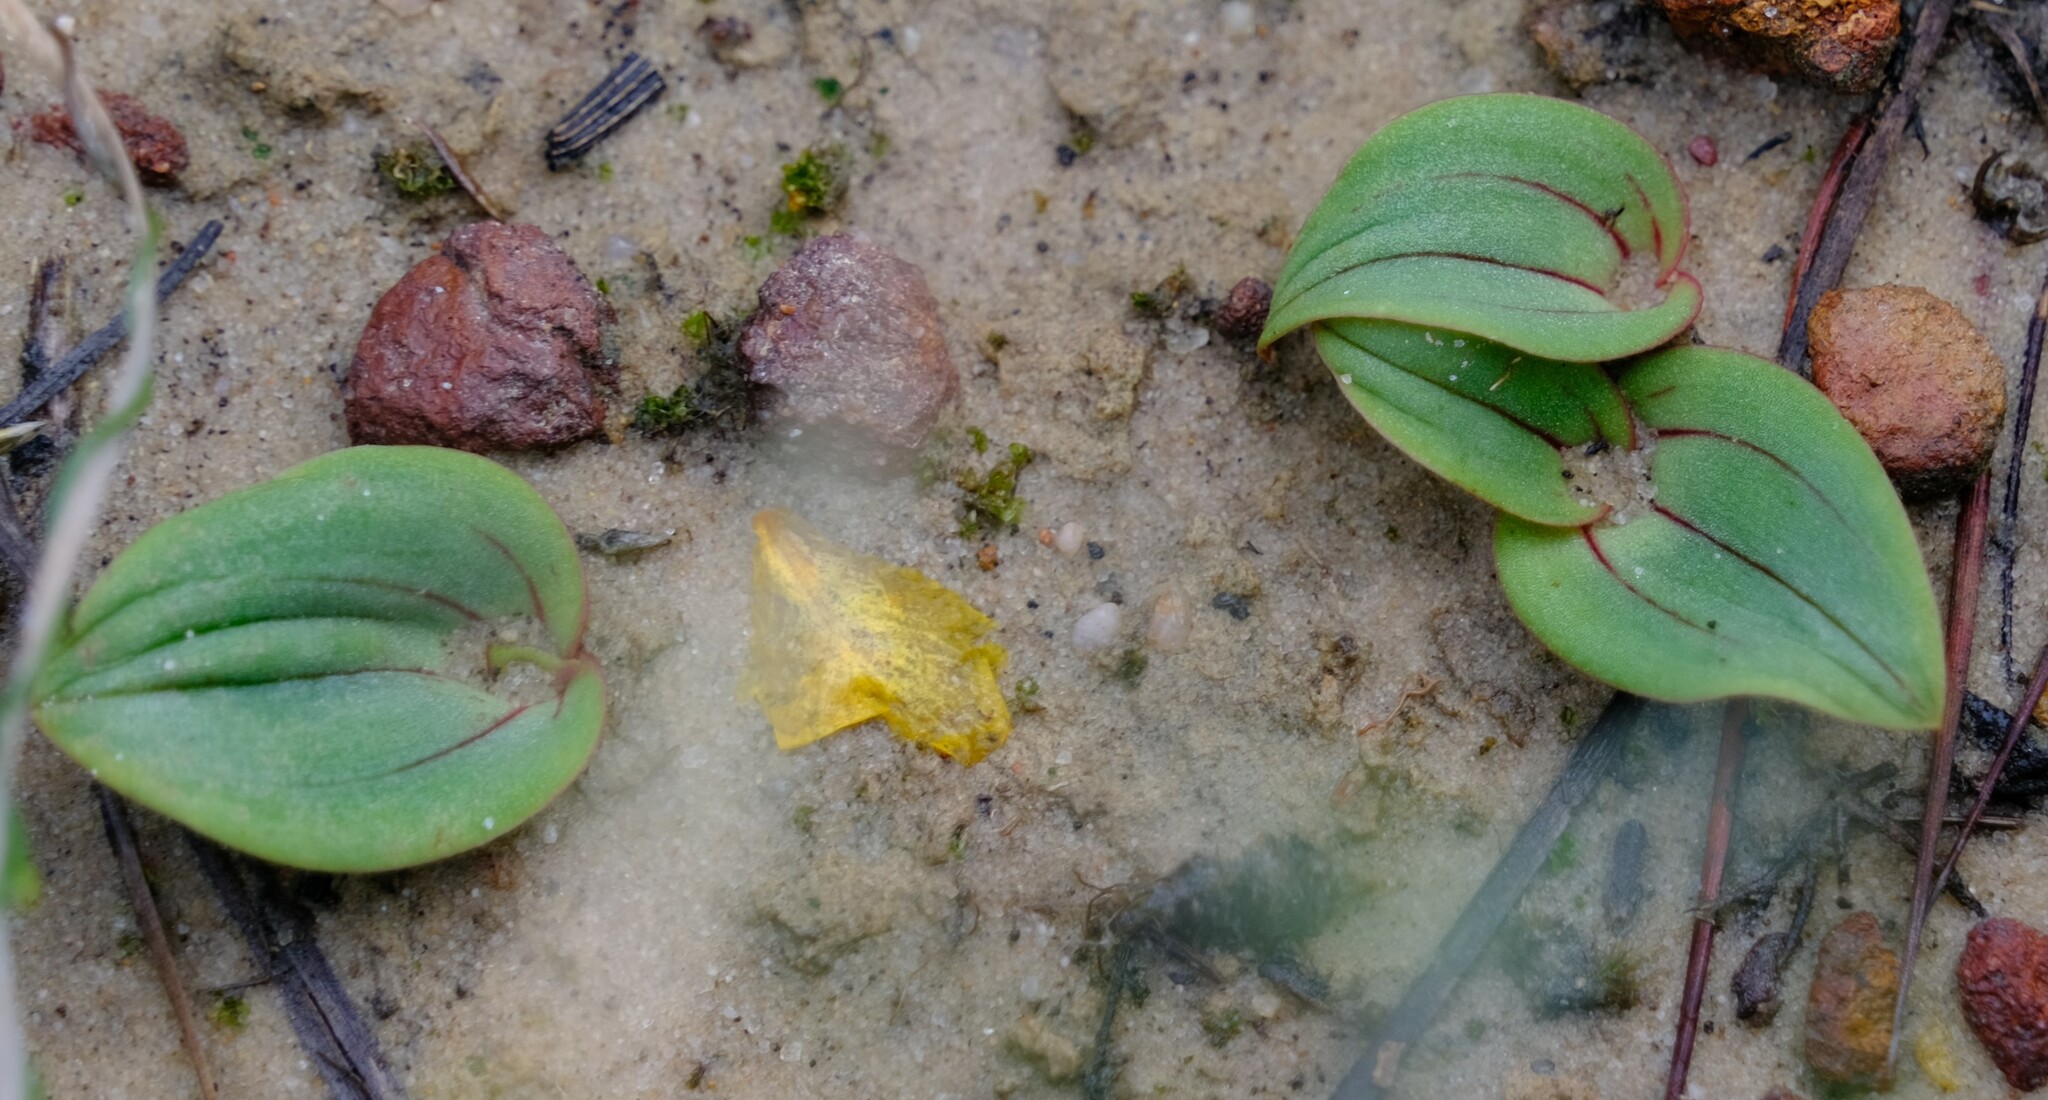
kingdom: Plantae
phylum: Tracheophyta
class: Liliopsida
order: Asparagales
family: Orchidaceae
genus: Leporella
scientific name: Leporella fimbriata
